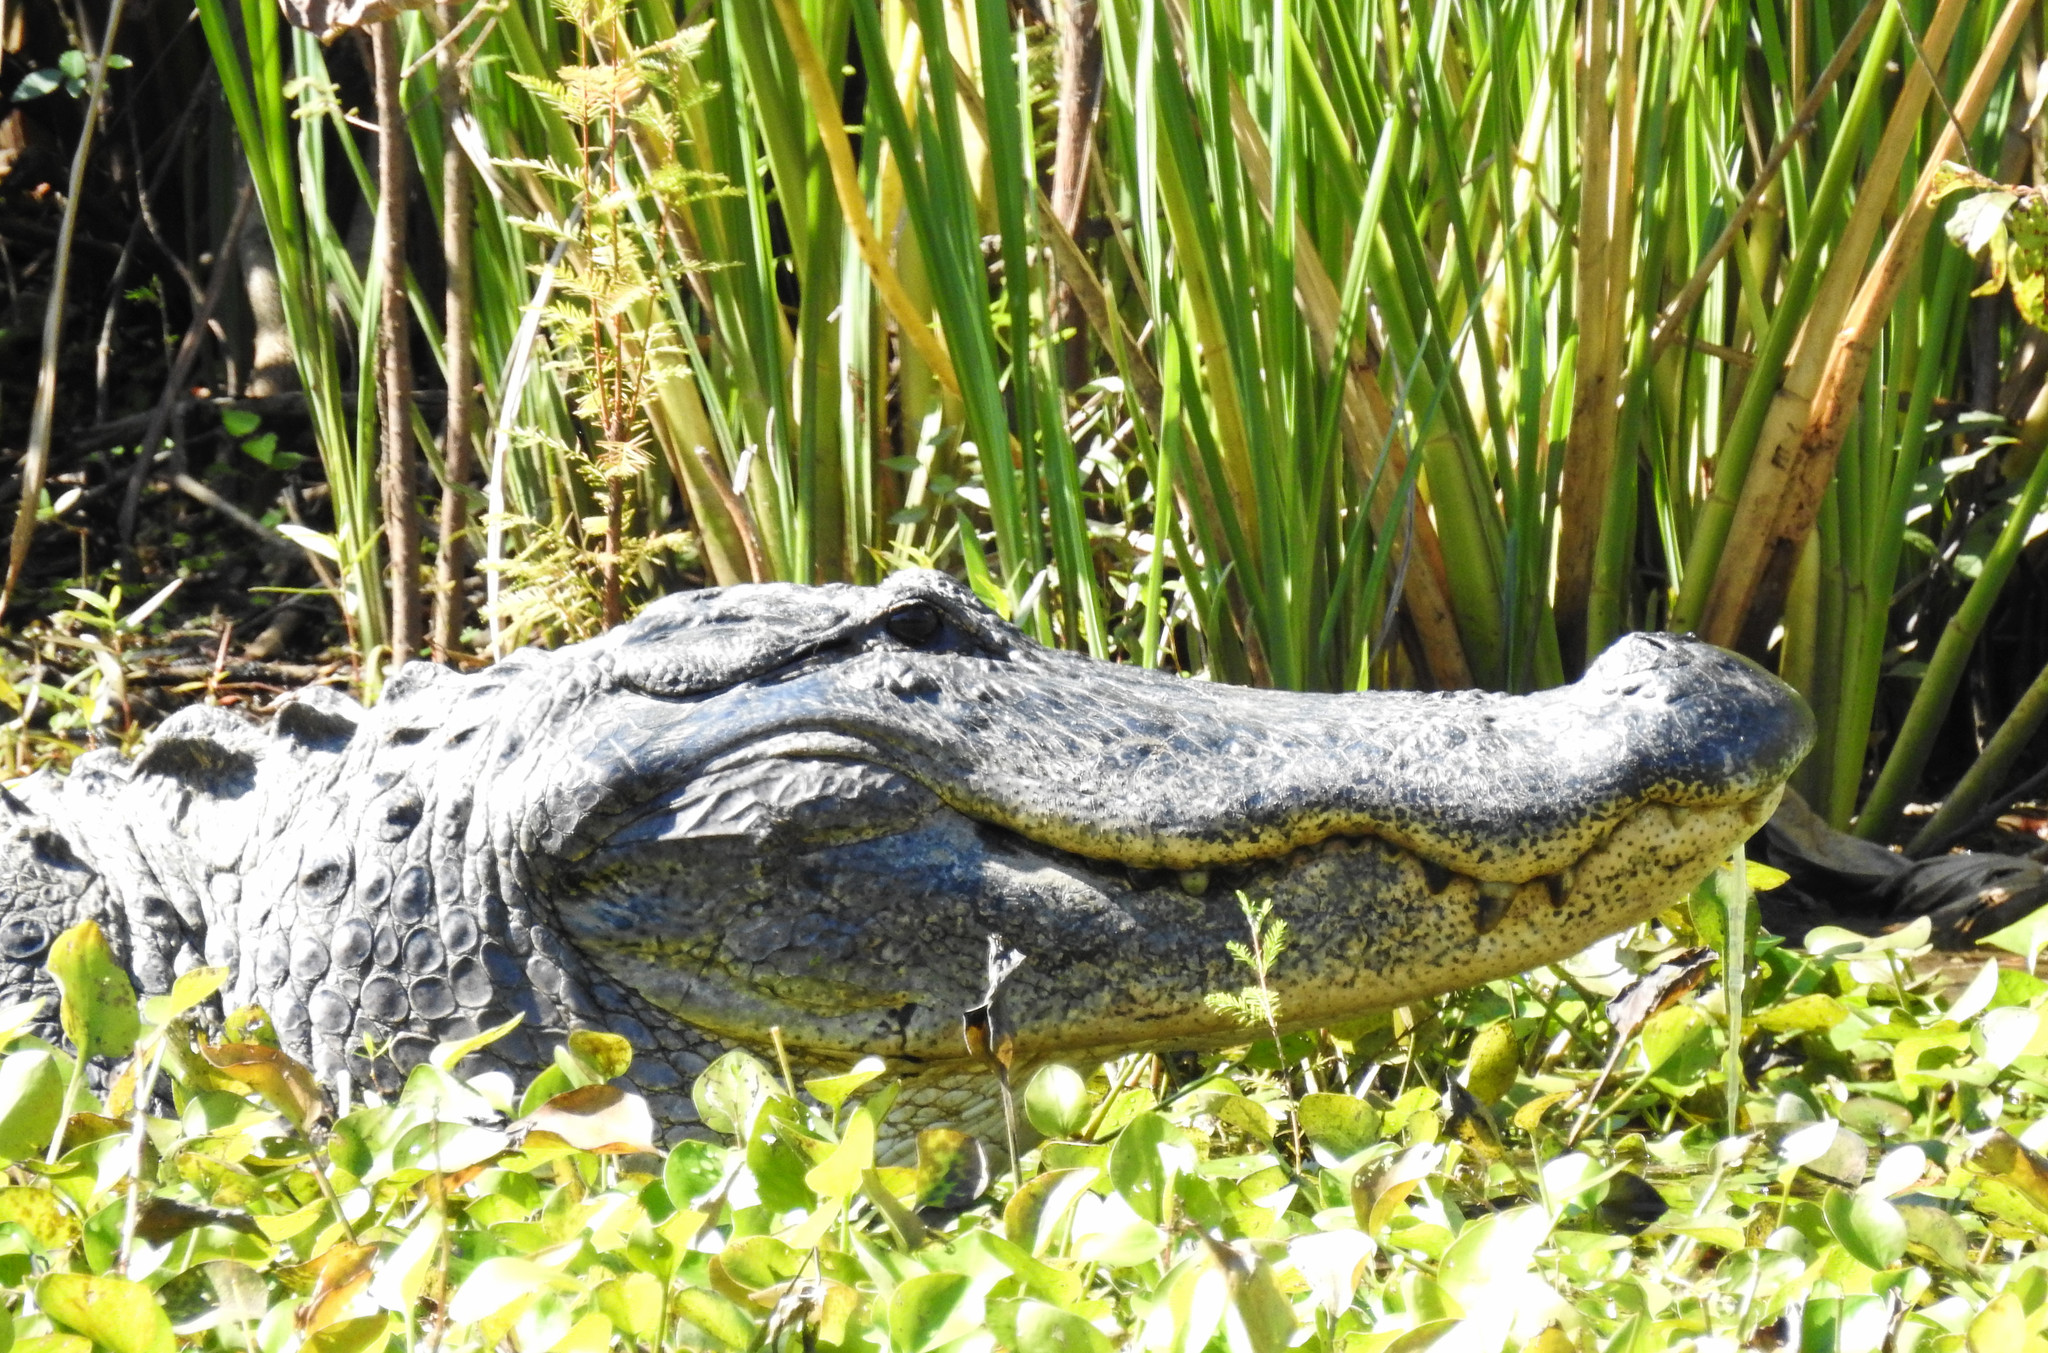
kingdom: Animalia
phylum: Chordata
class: Crocodylia
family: Alligatoridae
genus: Alligator
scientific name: Alligator mississippiensis
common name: American alligator
